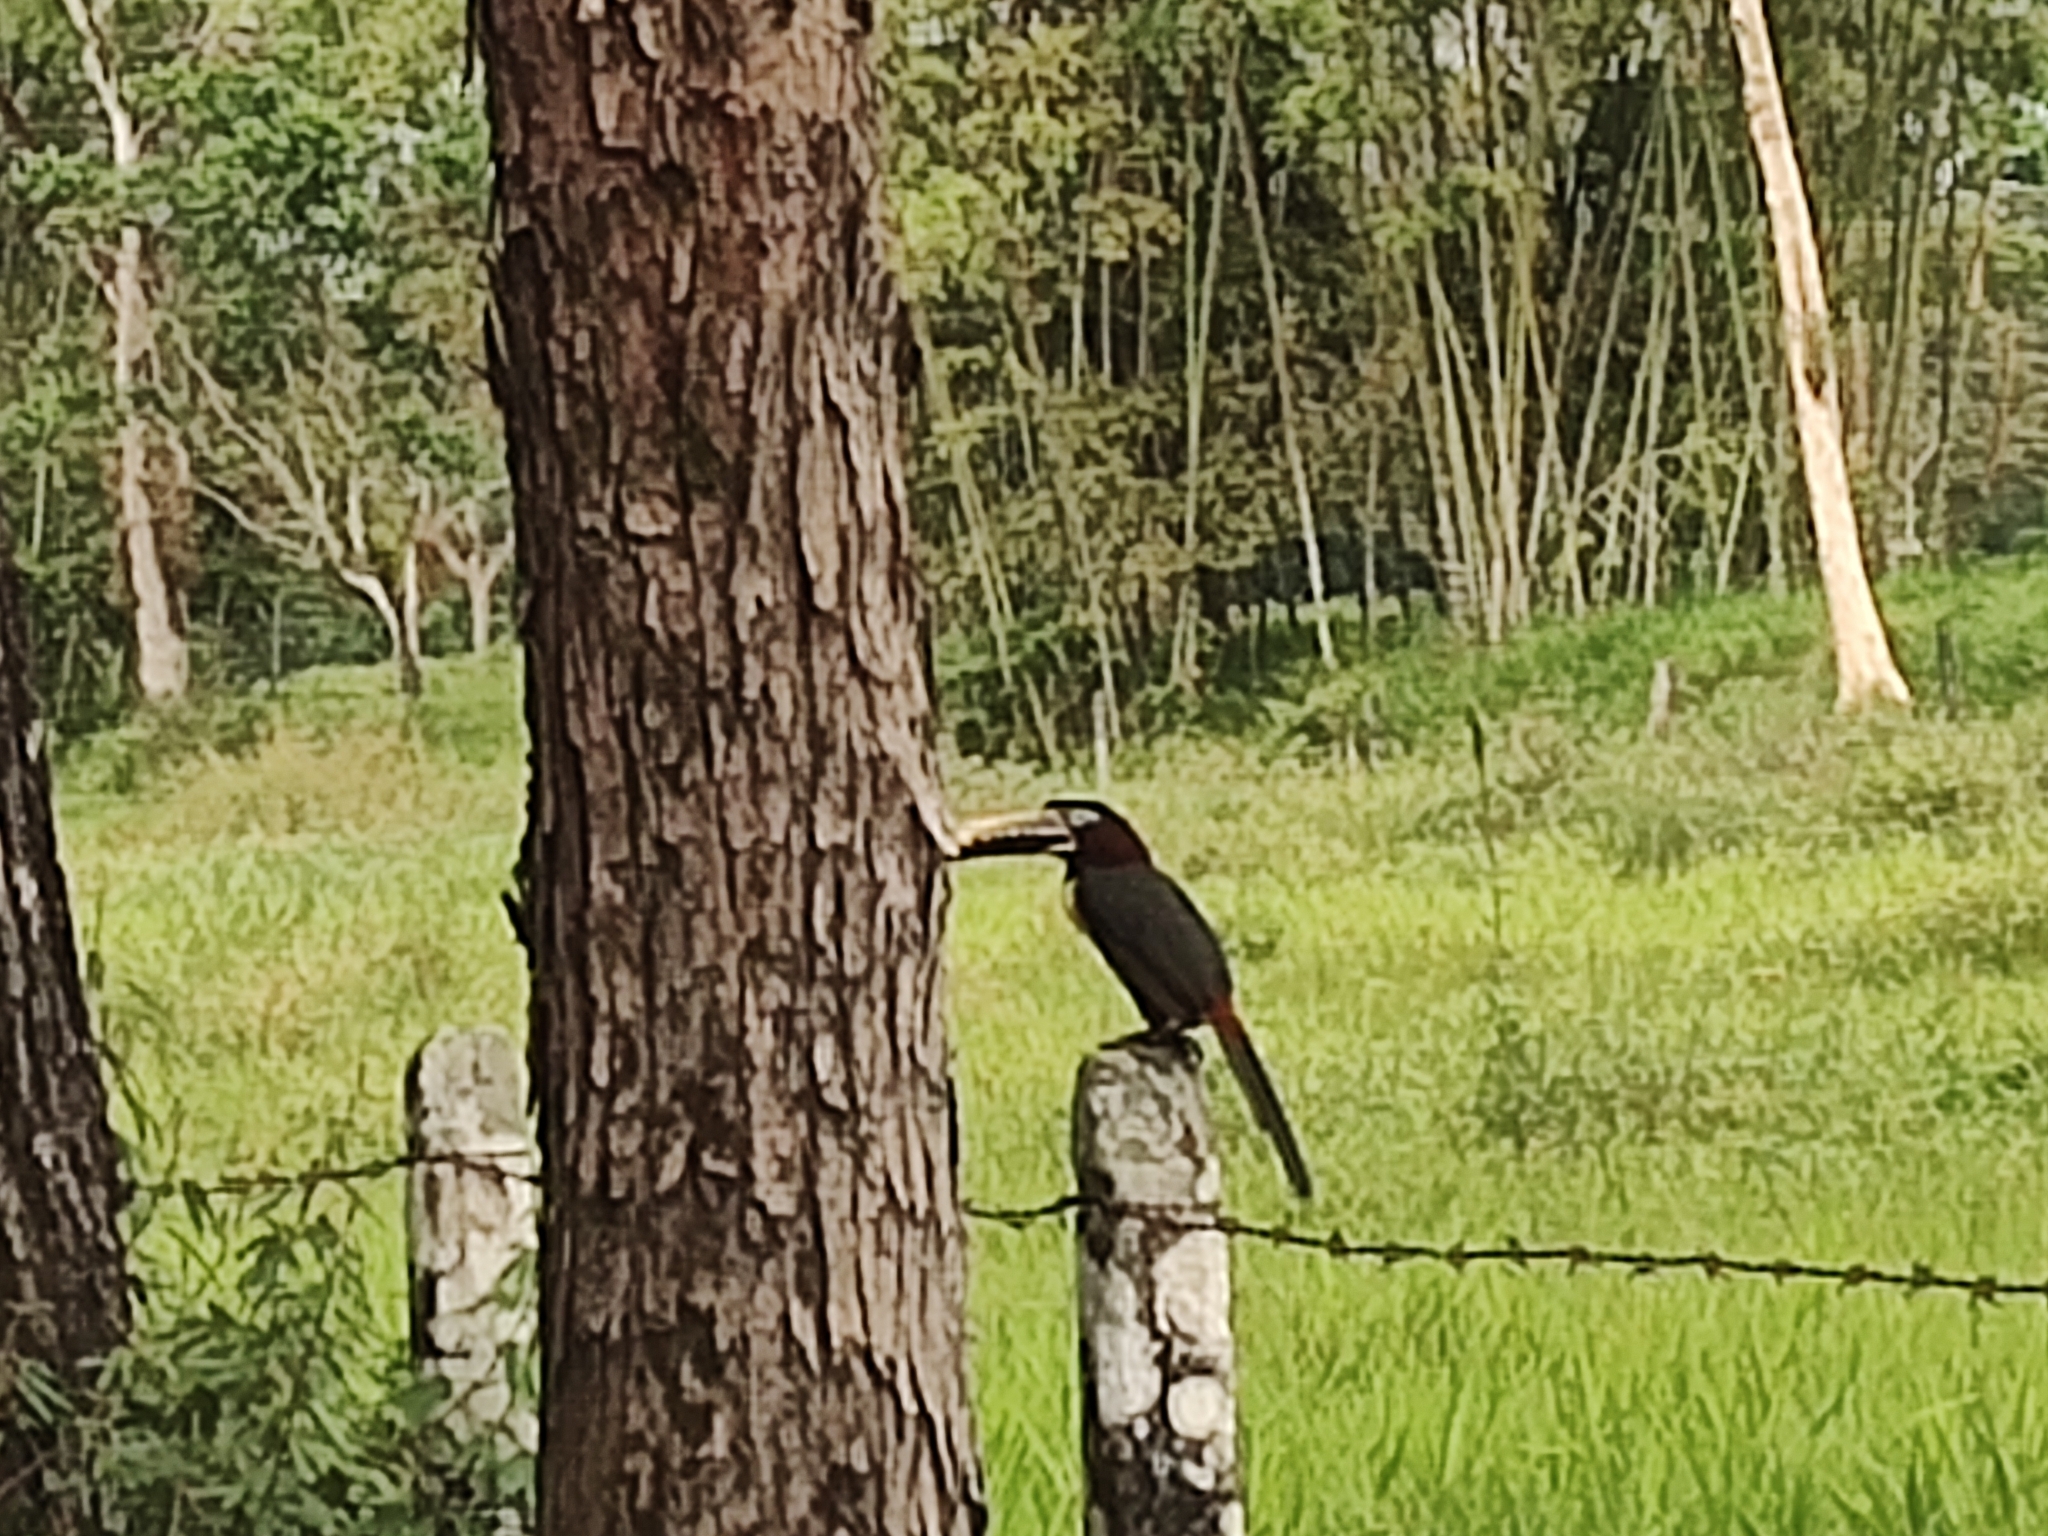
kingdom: Animalia
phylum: Chordata
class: Aves
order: Piciformes
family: Ramphastidae
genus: Pteroglossus
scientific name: Pteroglossus castanotis
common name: Chestnut-eared aracari
